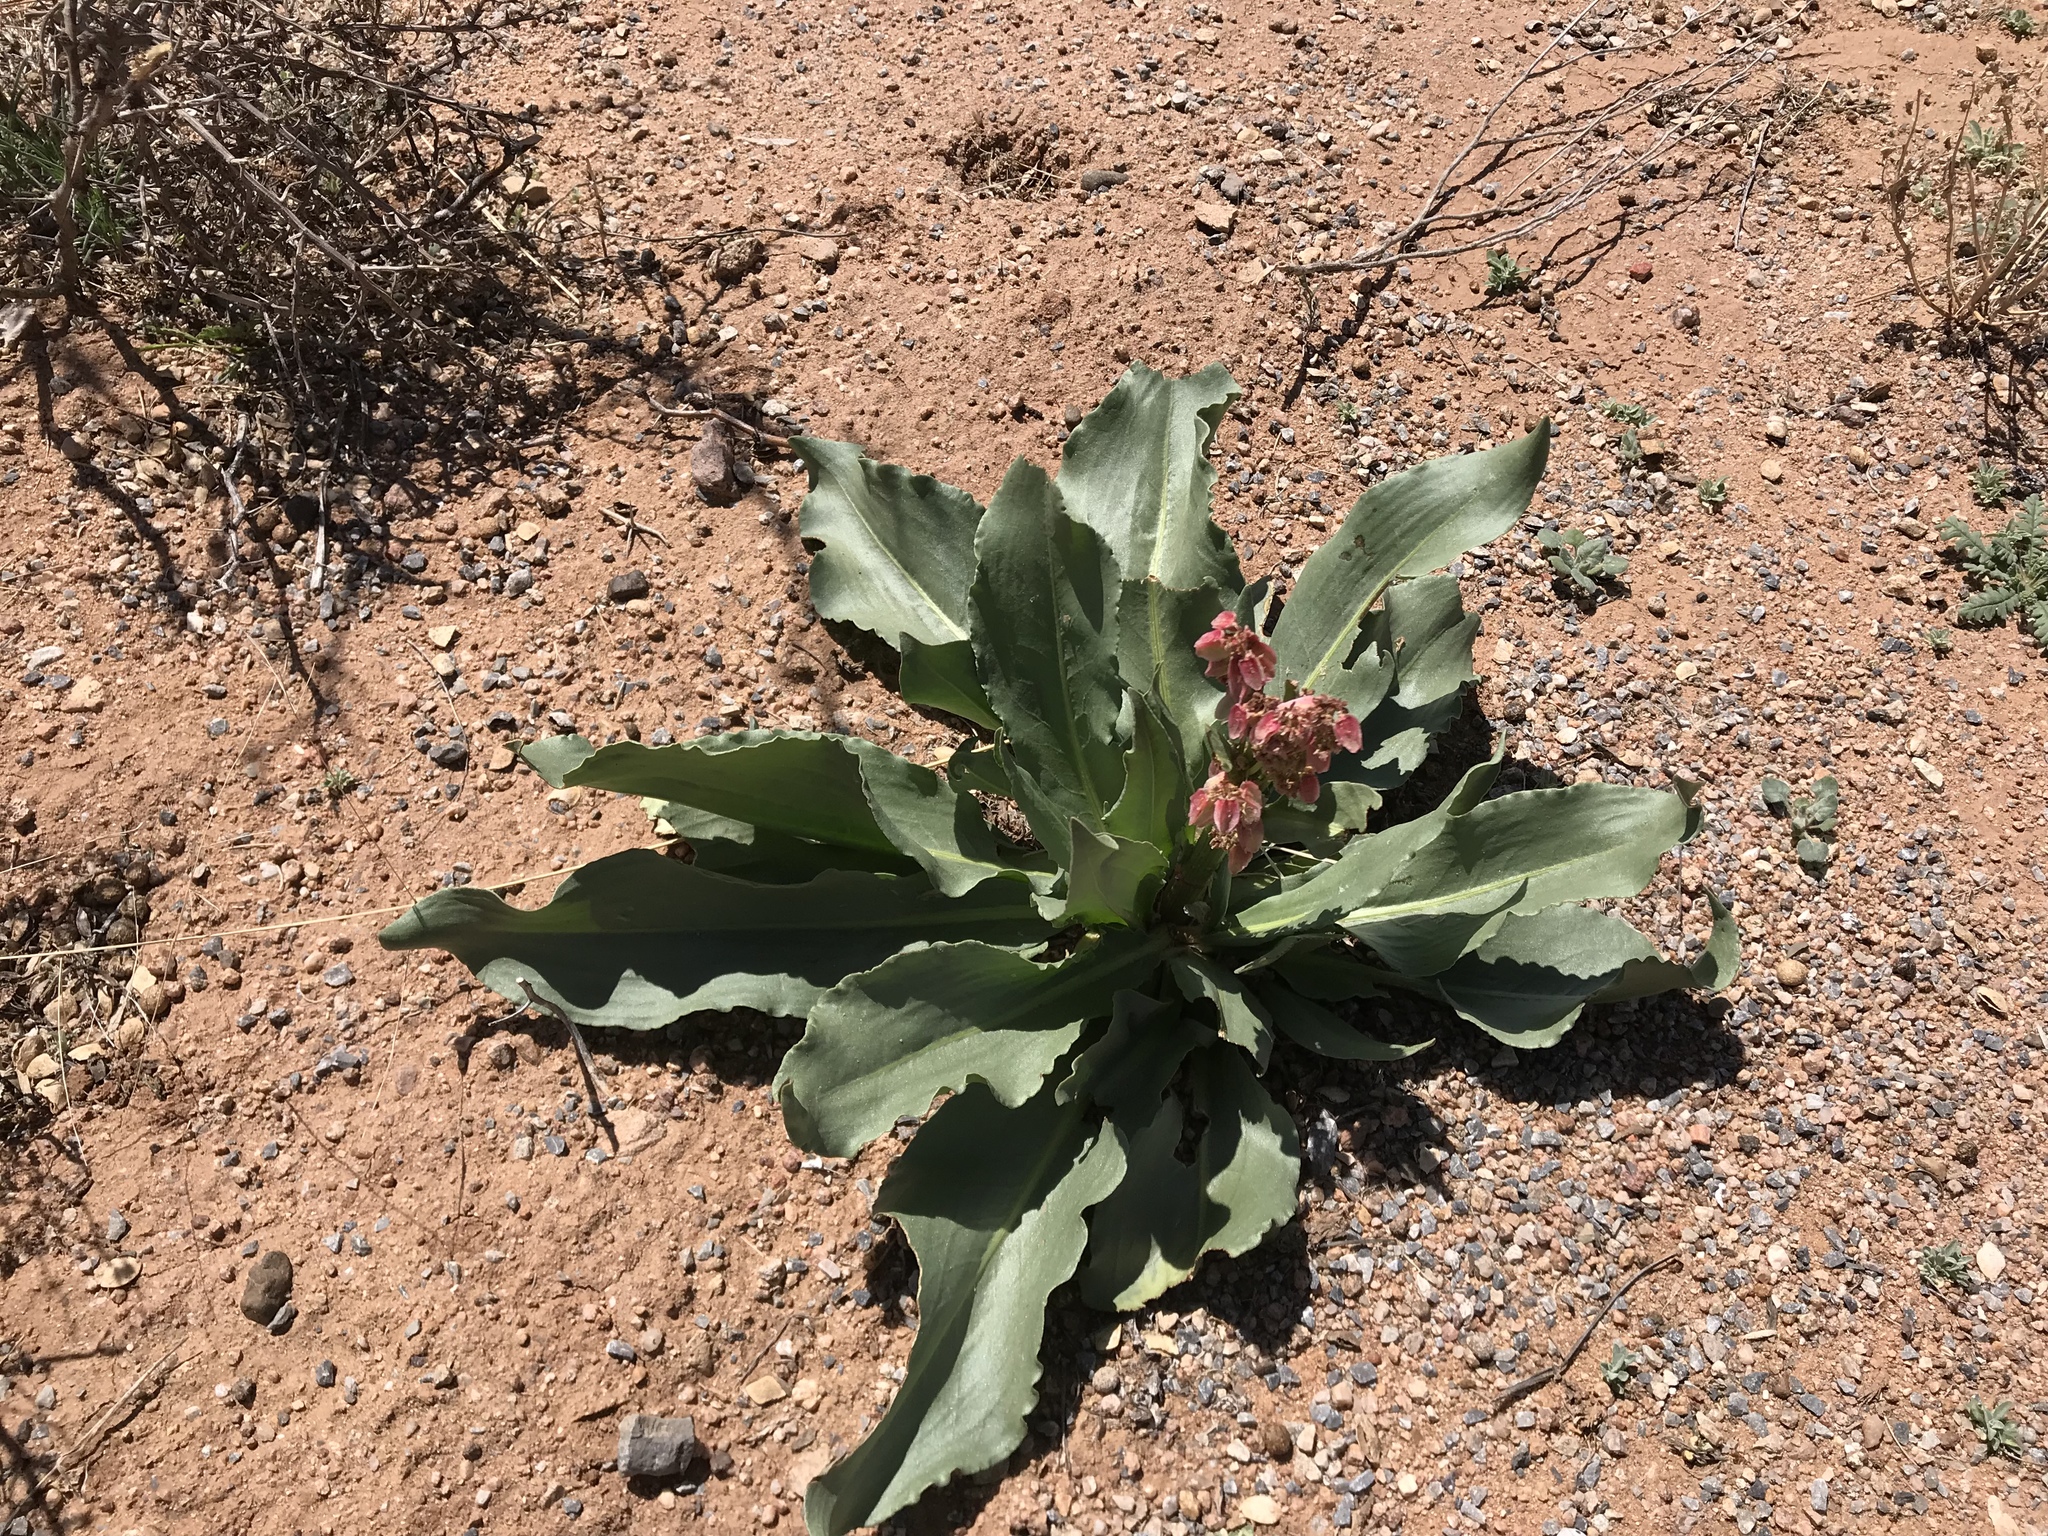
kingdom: Plantae
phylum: Tracheophyta
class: Magnoliopsida
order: Caryophyllales
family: Polygonaceae
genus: Rumex
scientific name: Rumex hymenosepalus
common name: Ganagra
